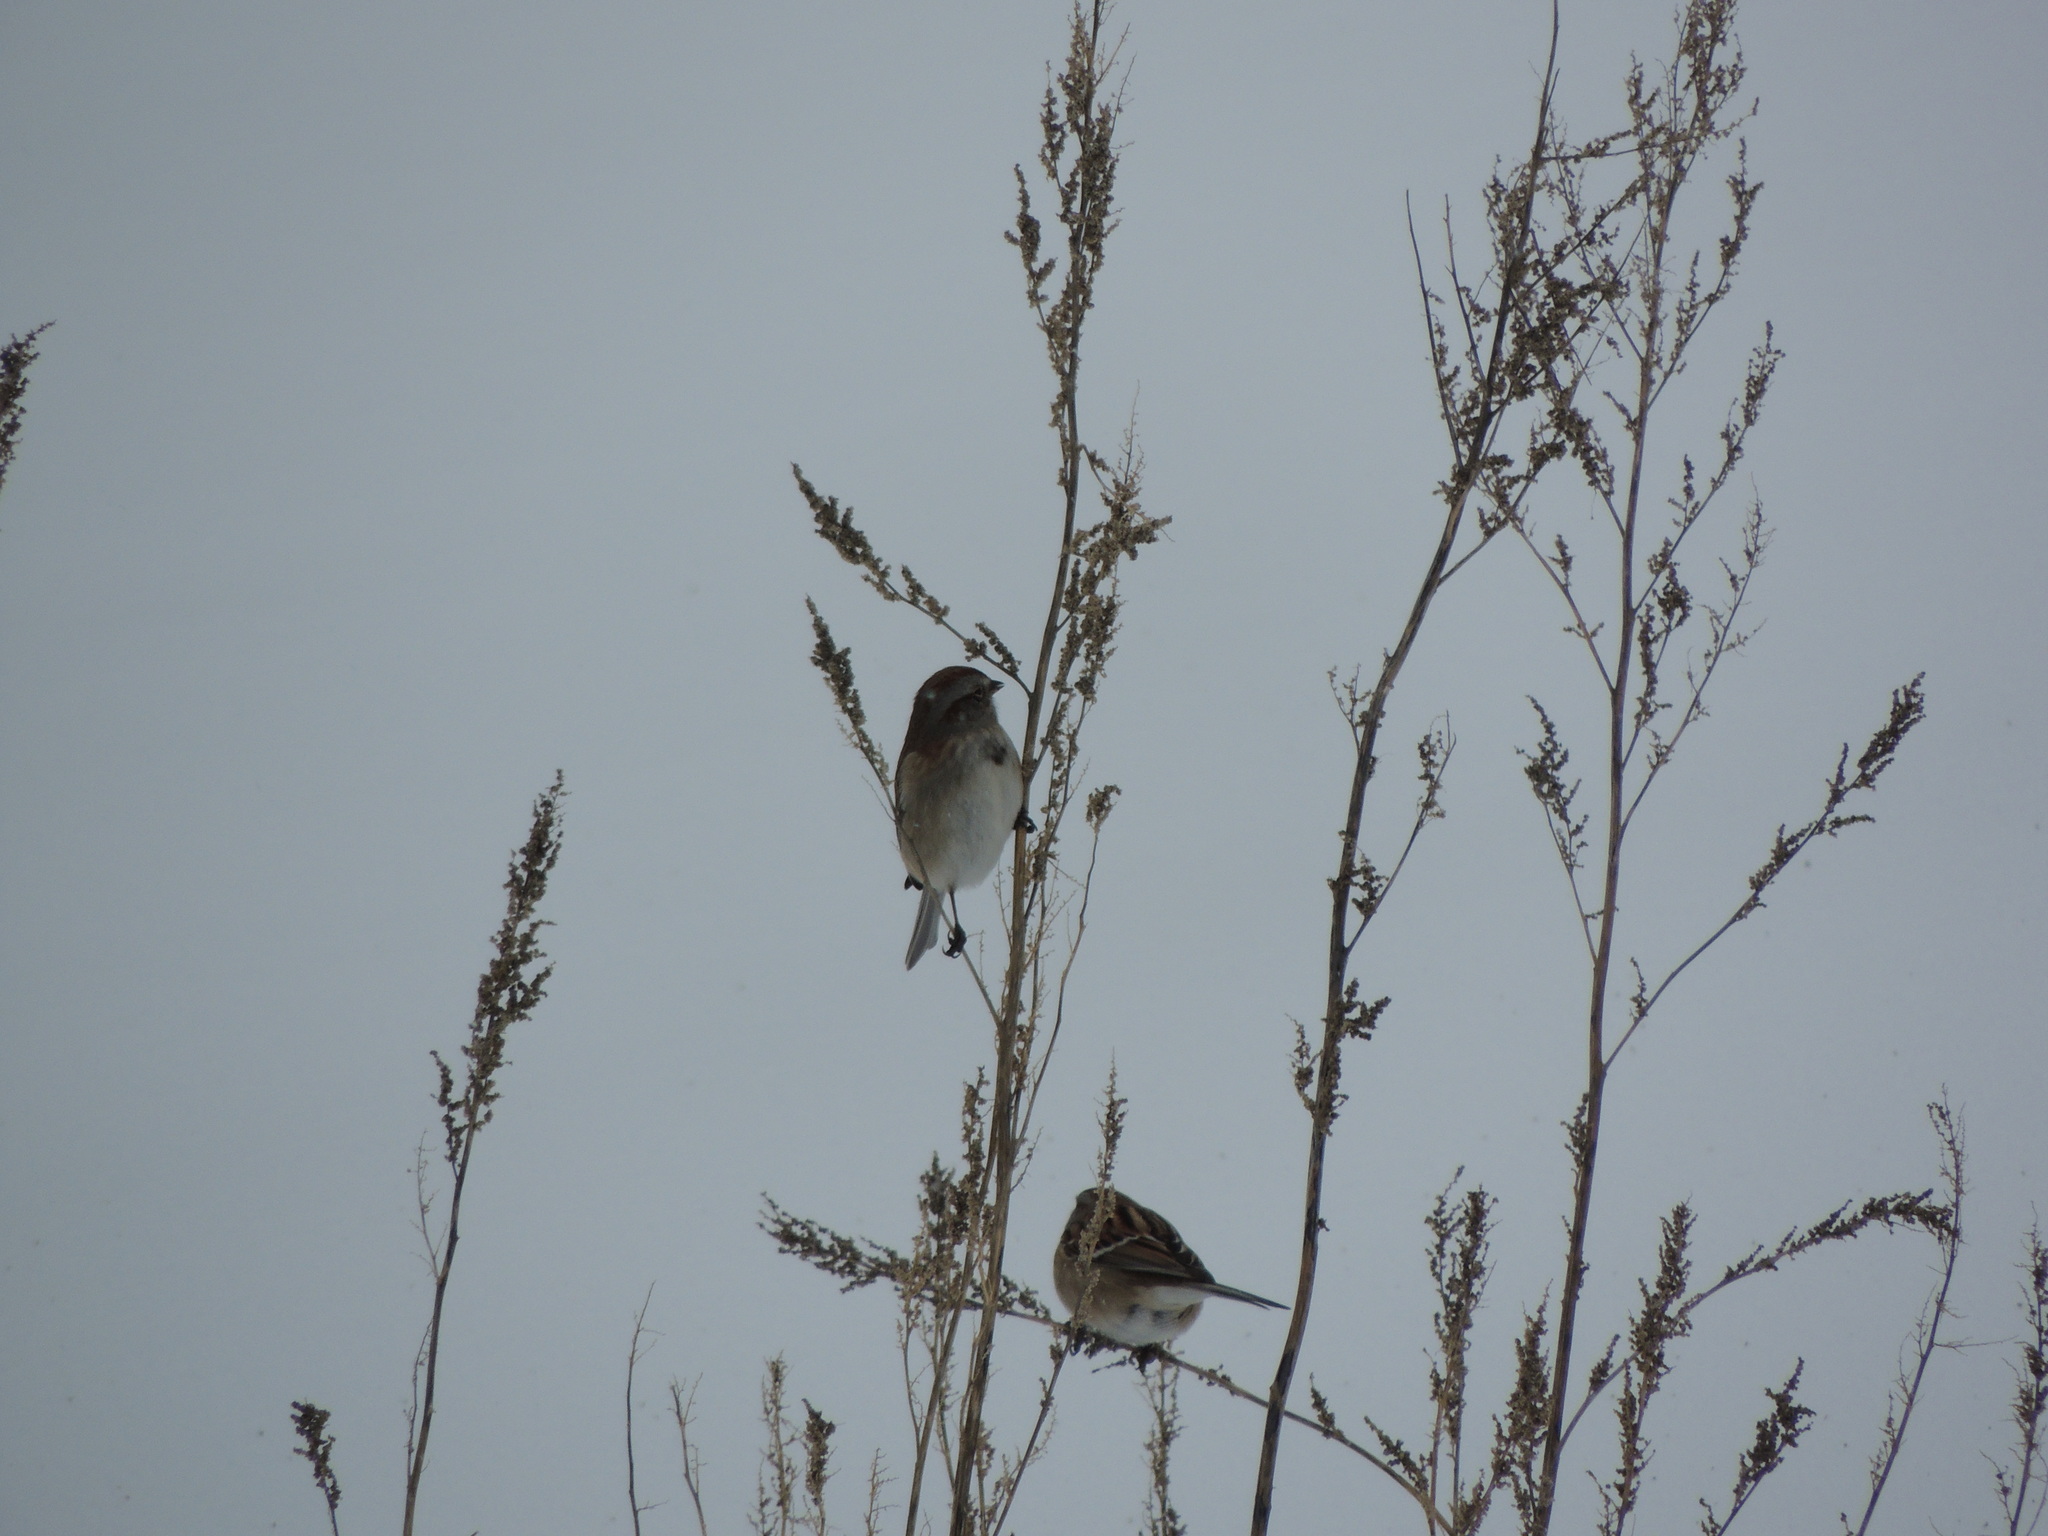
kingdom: Animalia
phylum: Chordata
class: Aves
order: Passeriformes
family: Passerellidae
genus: Spizelloides
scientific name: Spizelloides arborea
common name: American tree sparrow
